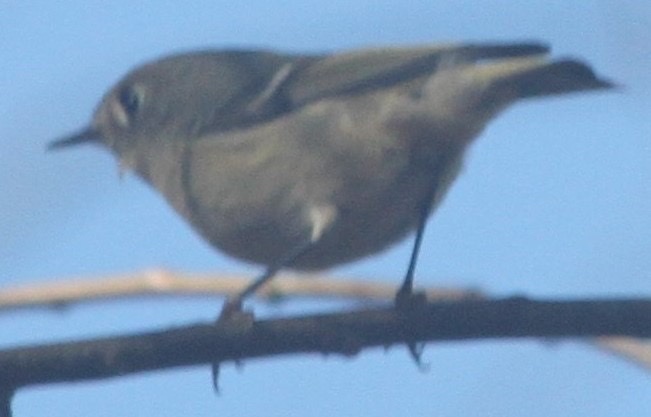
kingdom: Animalia
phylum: Chordata
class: Aves
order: Passeriformes
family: Regulidae
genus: Regulus
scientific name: Regulus calendula
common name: Ruby-crowned kinglet
